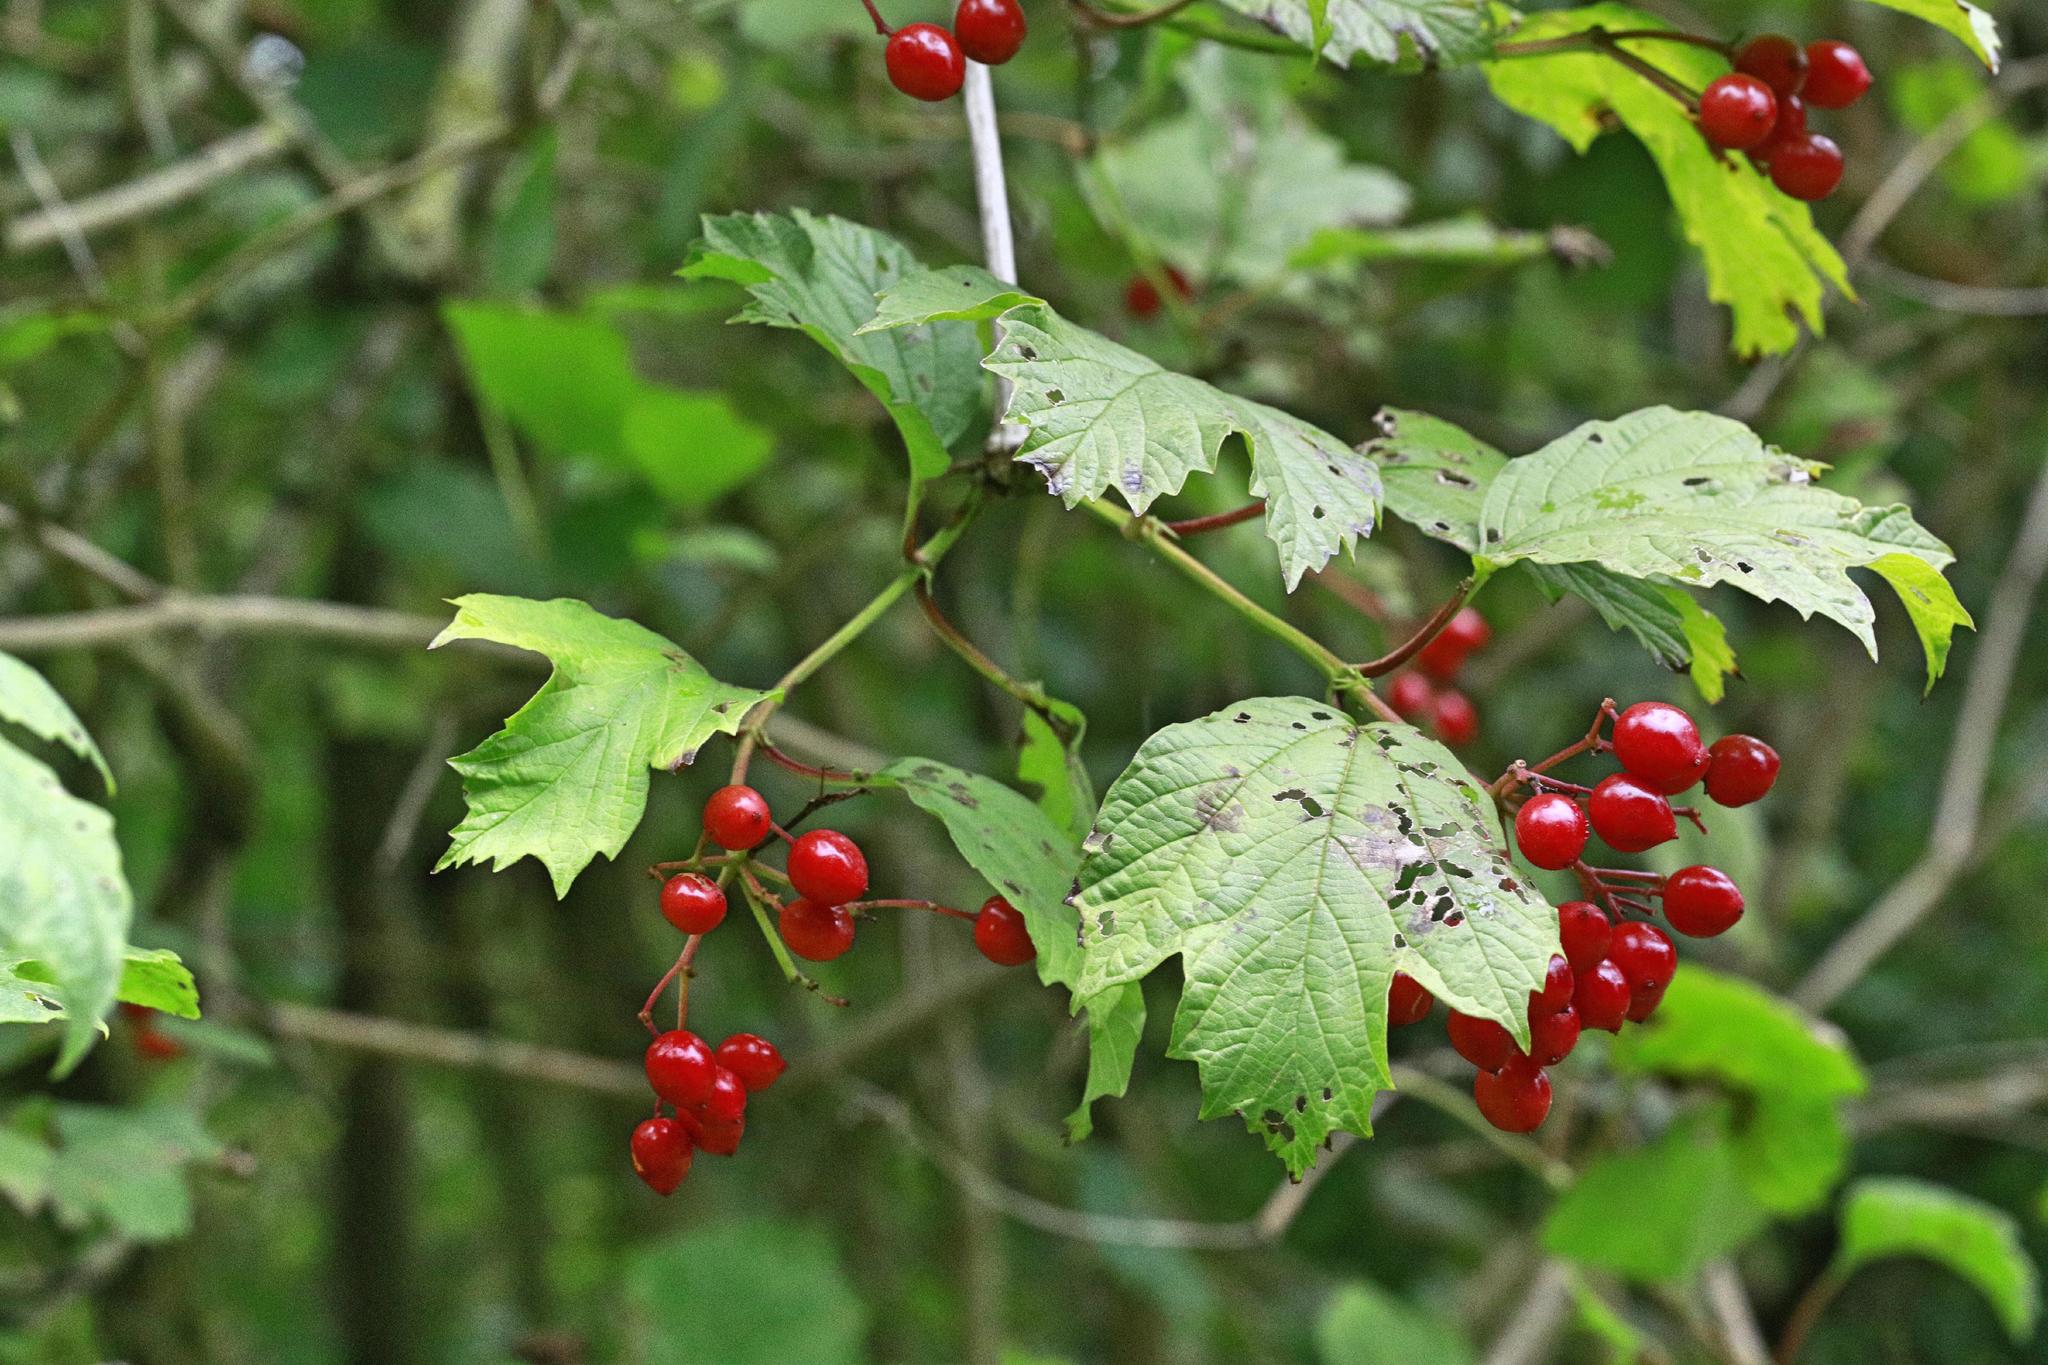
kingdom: Plantae
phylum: Tracheophyta
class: Magnoliopsida
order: Dipsacales
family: Viburnaceae
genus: Viburnum
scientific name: Viburnum opulus
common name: Guelder-rose
